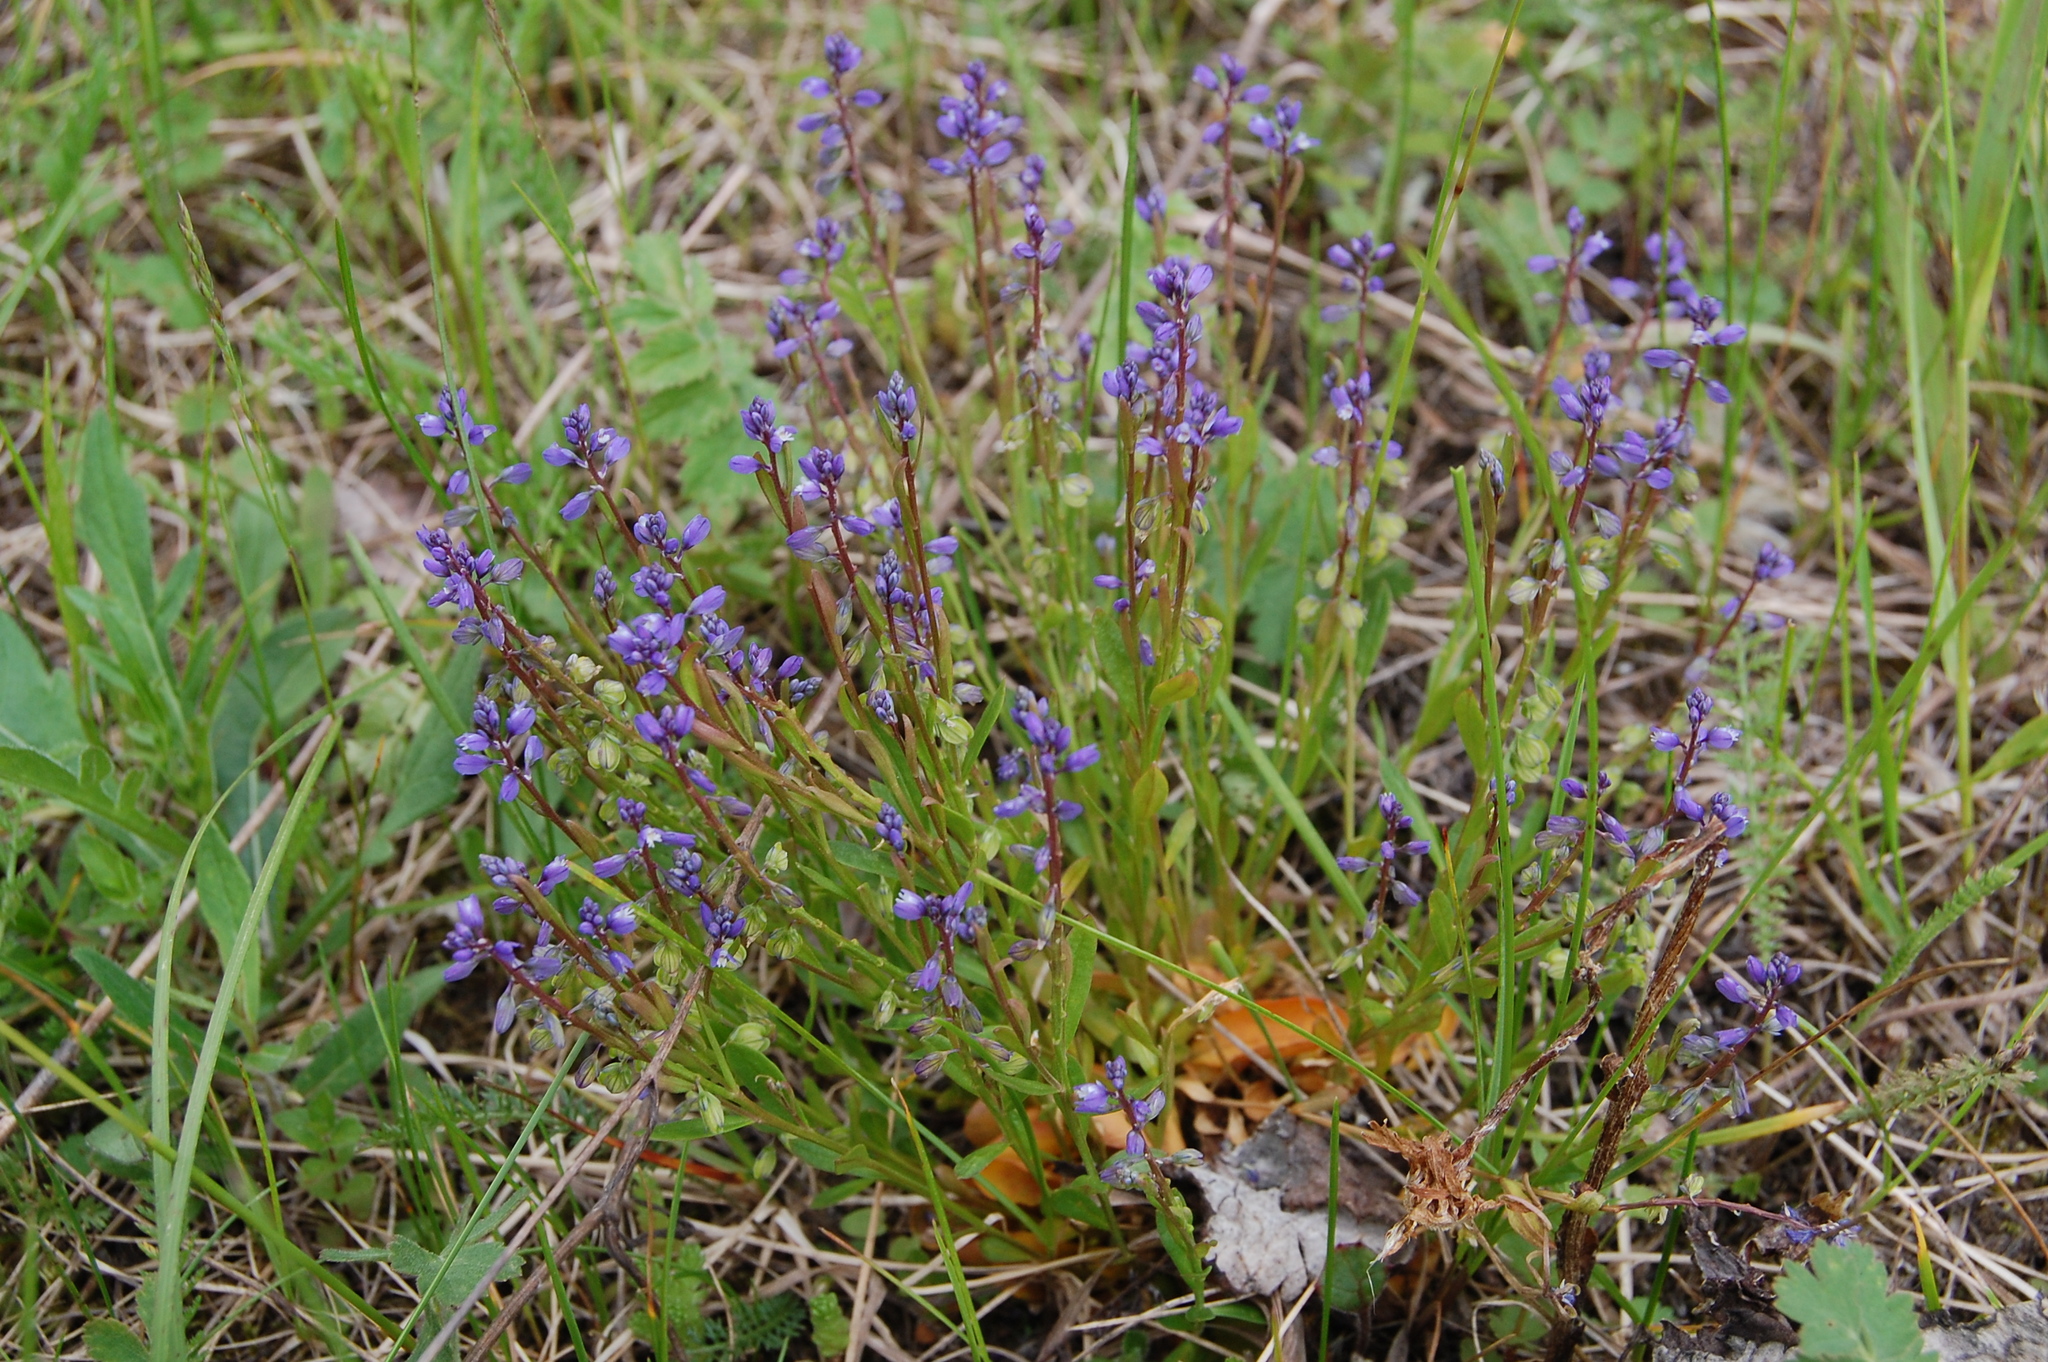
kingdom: Plantae
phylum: Tracheophyta
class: Magnoliopsida
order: Fabales
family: Polygalaceae
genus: Polygala
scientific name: Polygala amarella
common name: Dwarf milkwort
